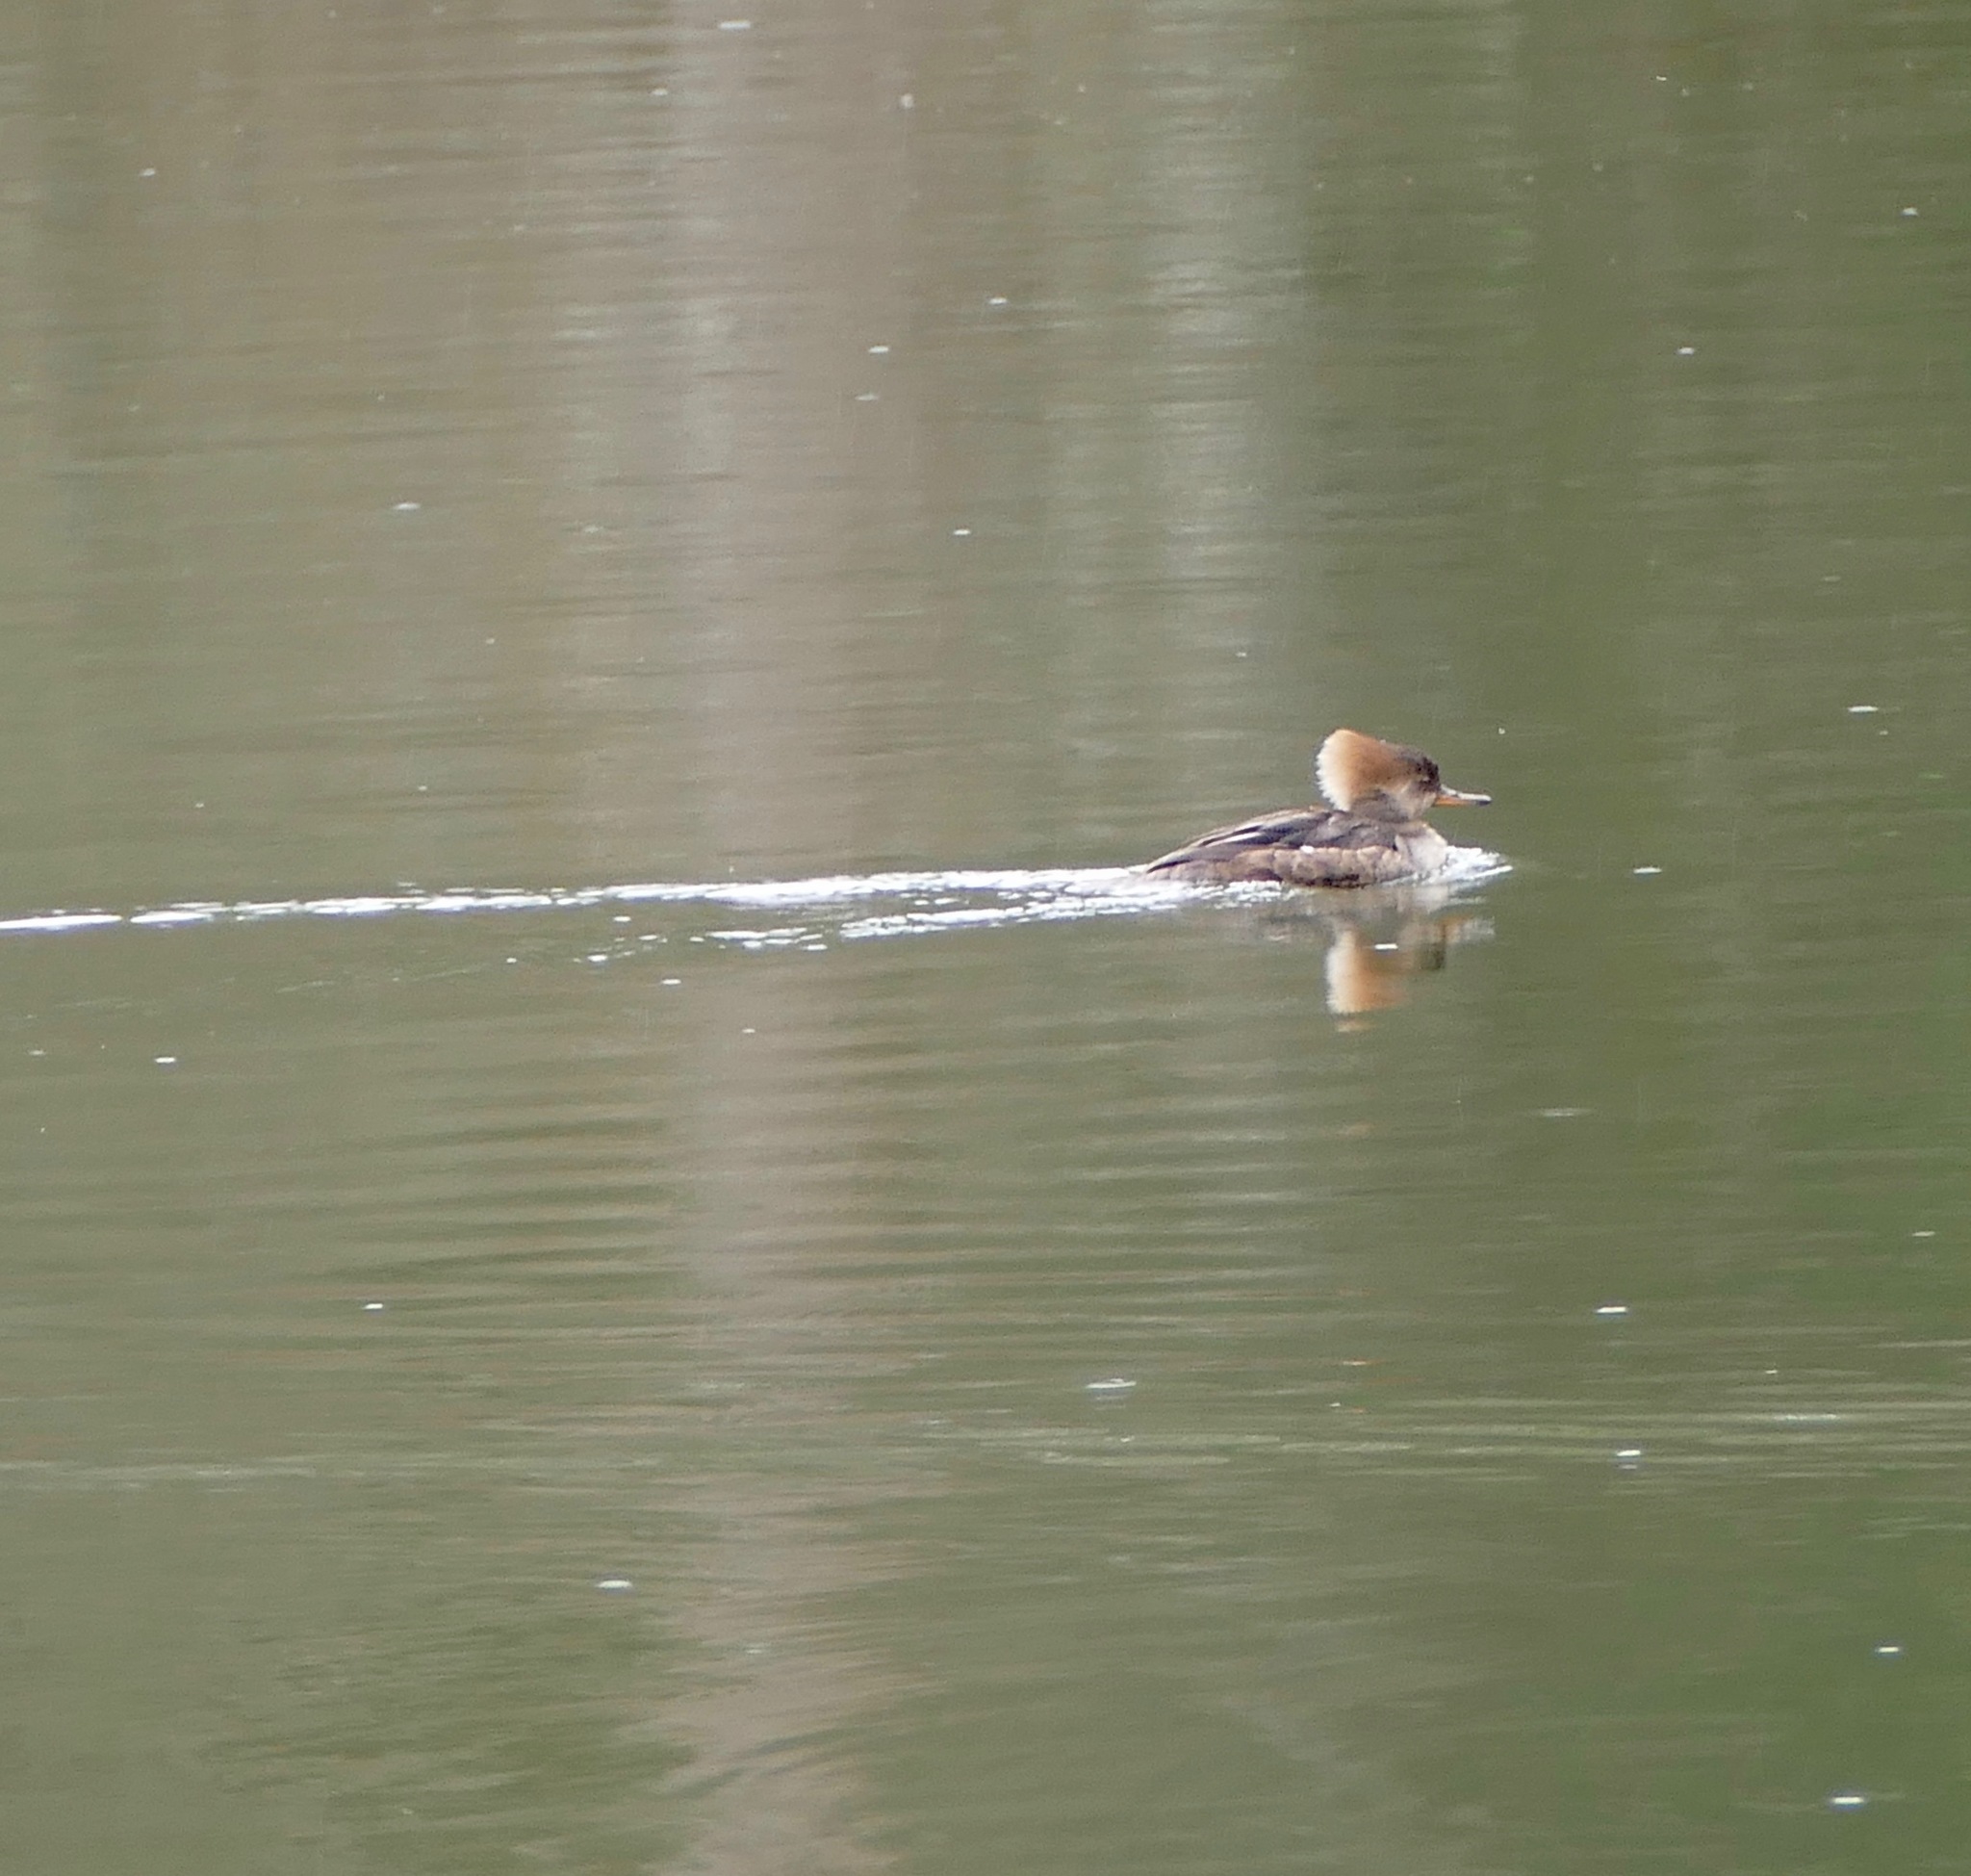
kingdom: Animalia
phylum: Chordata
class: Aves
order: Anseriformes
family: Anatidae
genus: Lophodytes
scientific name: Lophodytes cucullatus
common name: Hooded merganser
